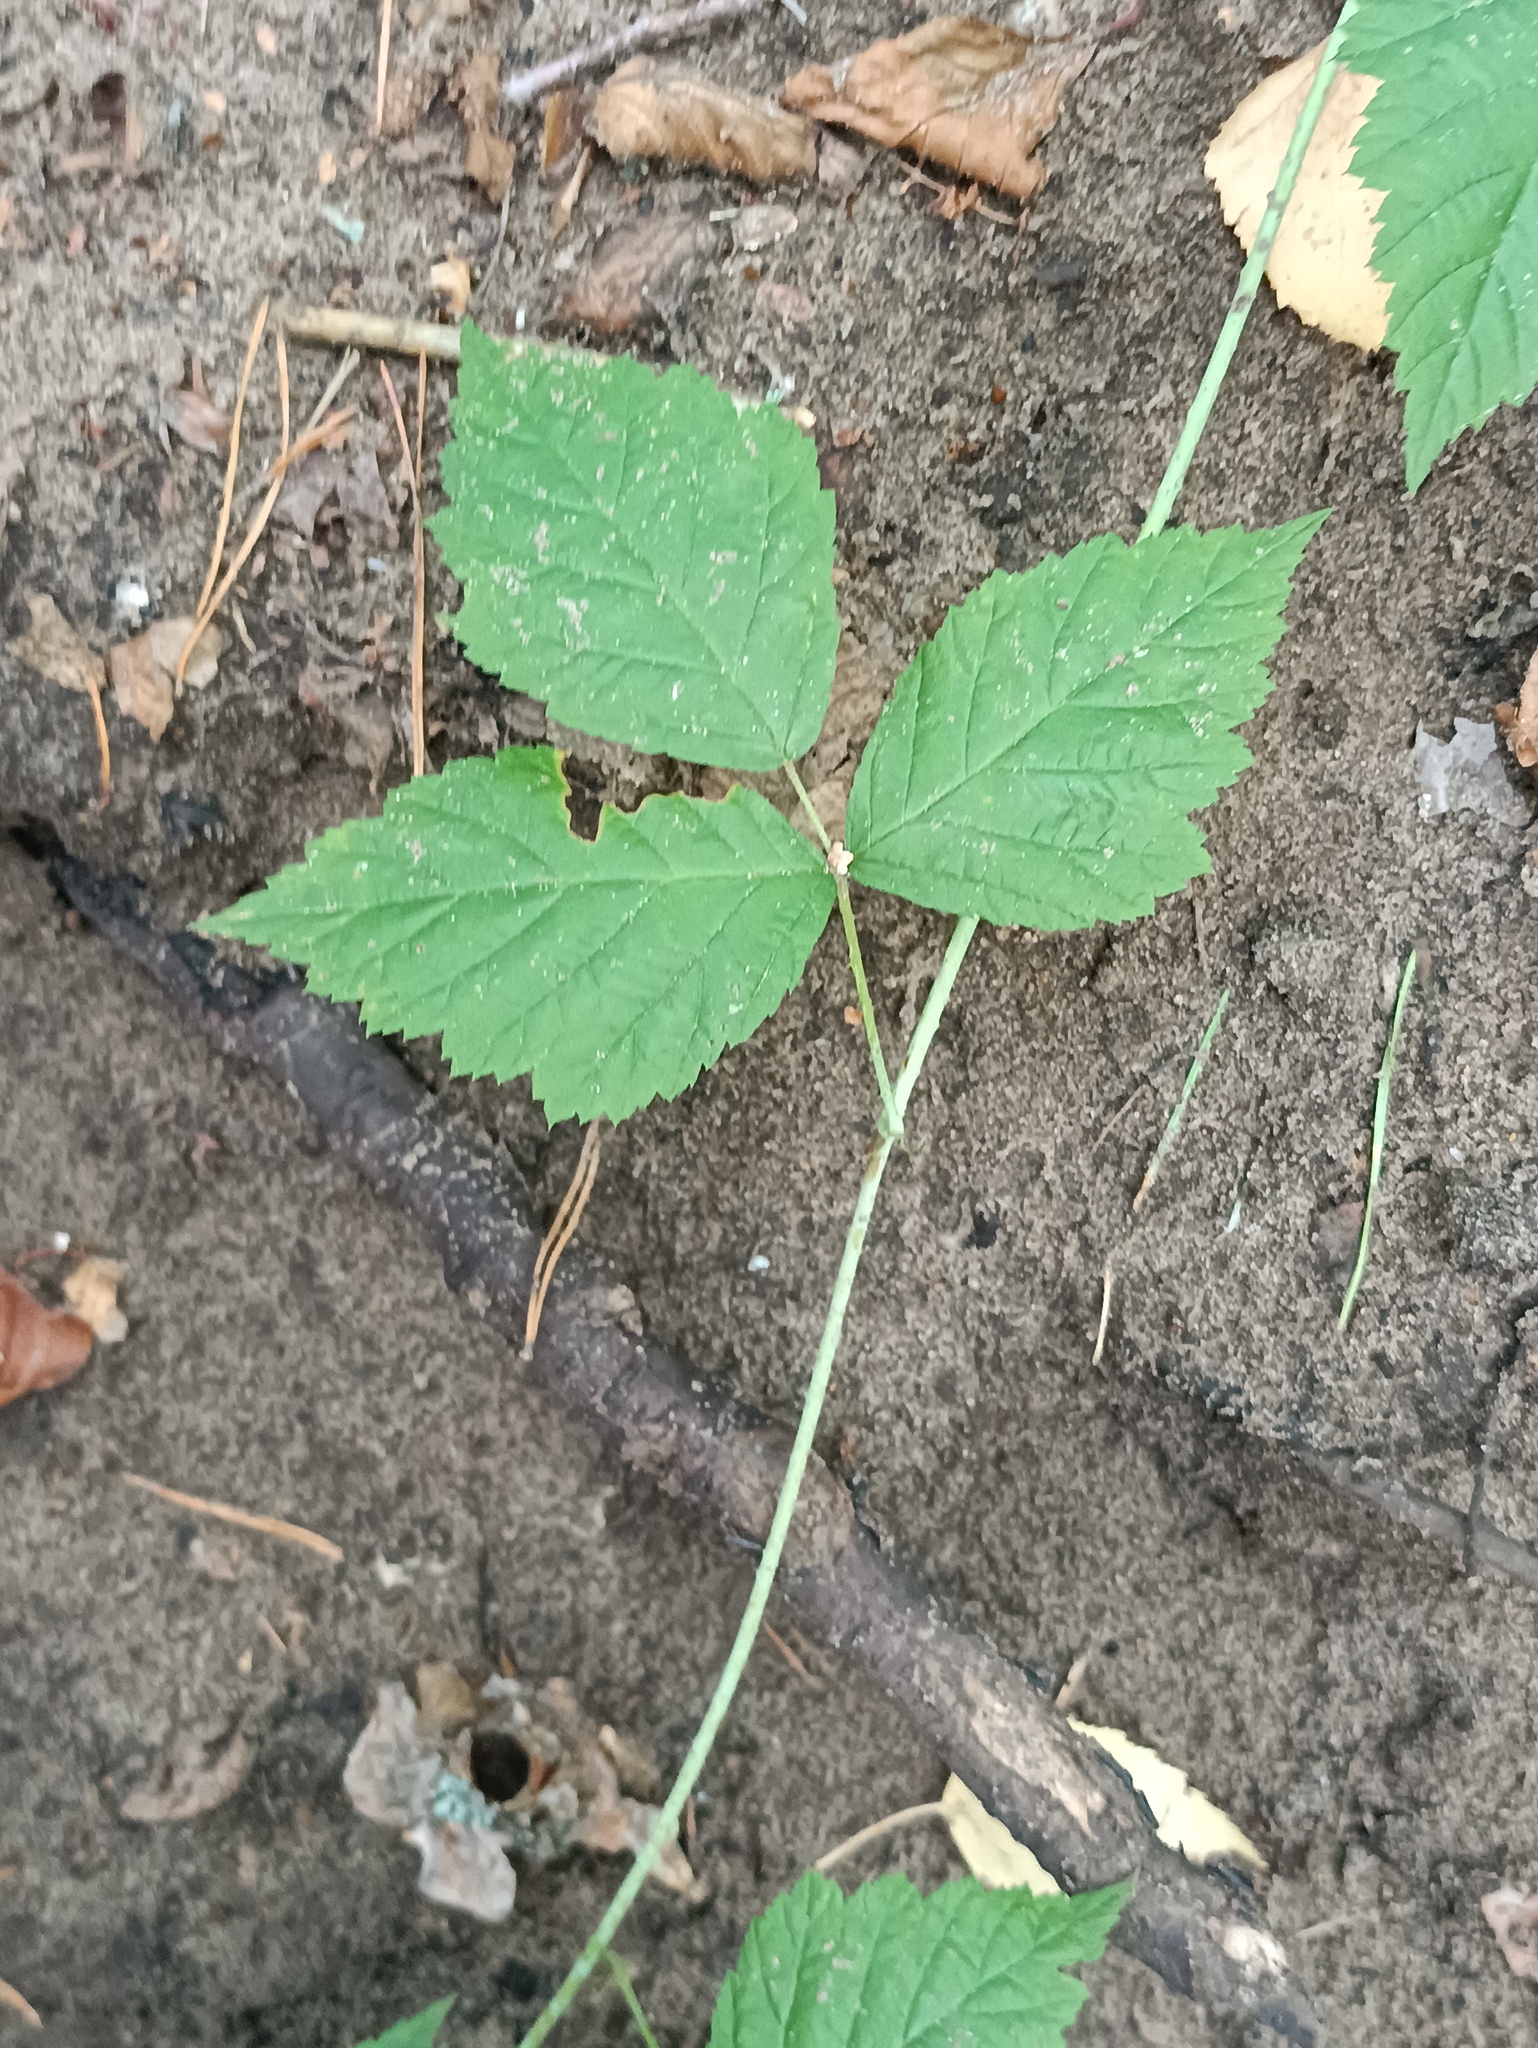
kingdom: Plantae
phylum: Tracheophyta
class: Magnoliopsida
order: Rosales
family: Rosaceae
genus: Rubus
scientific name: Rubus caesius
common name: Dewberry
